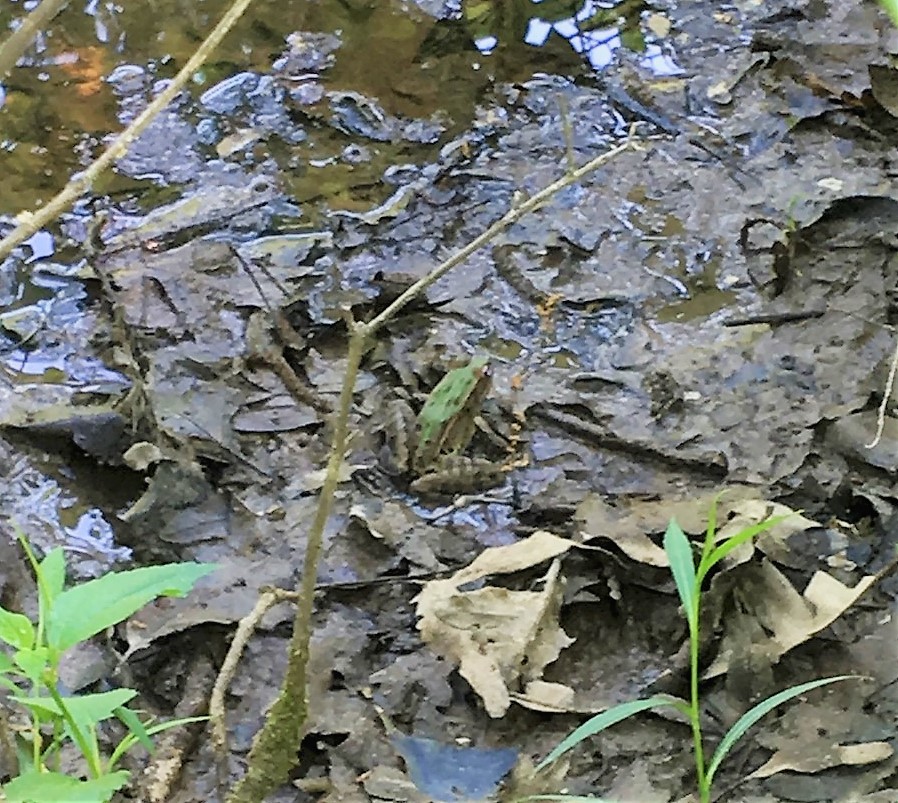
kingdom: Animalia
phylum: Chordata
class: Amphibia
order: Anura
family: Ranidae
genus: Lithobates
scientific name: Lithobates sphenocephalus
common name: Southern leopard frog
